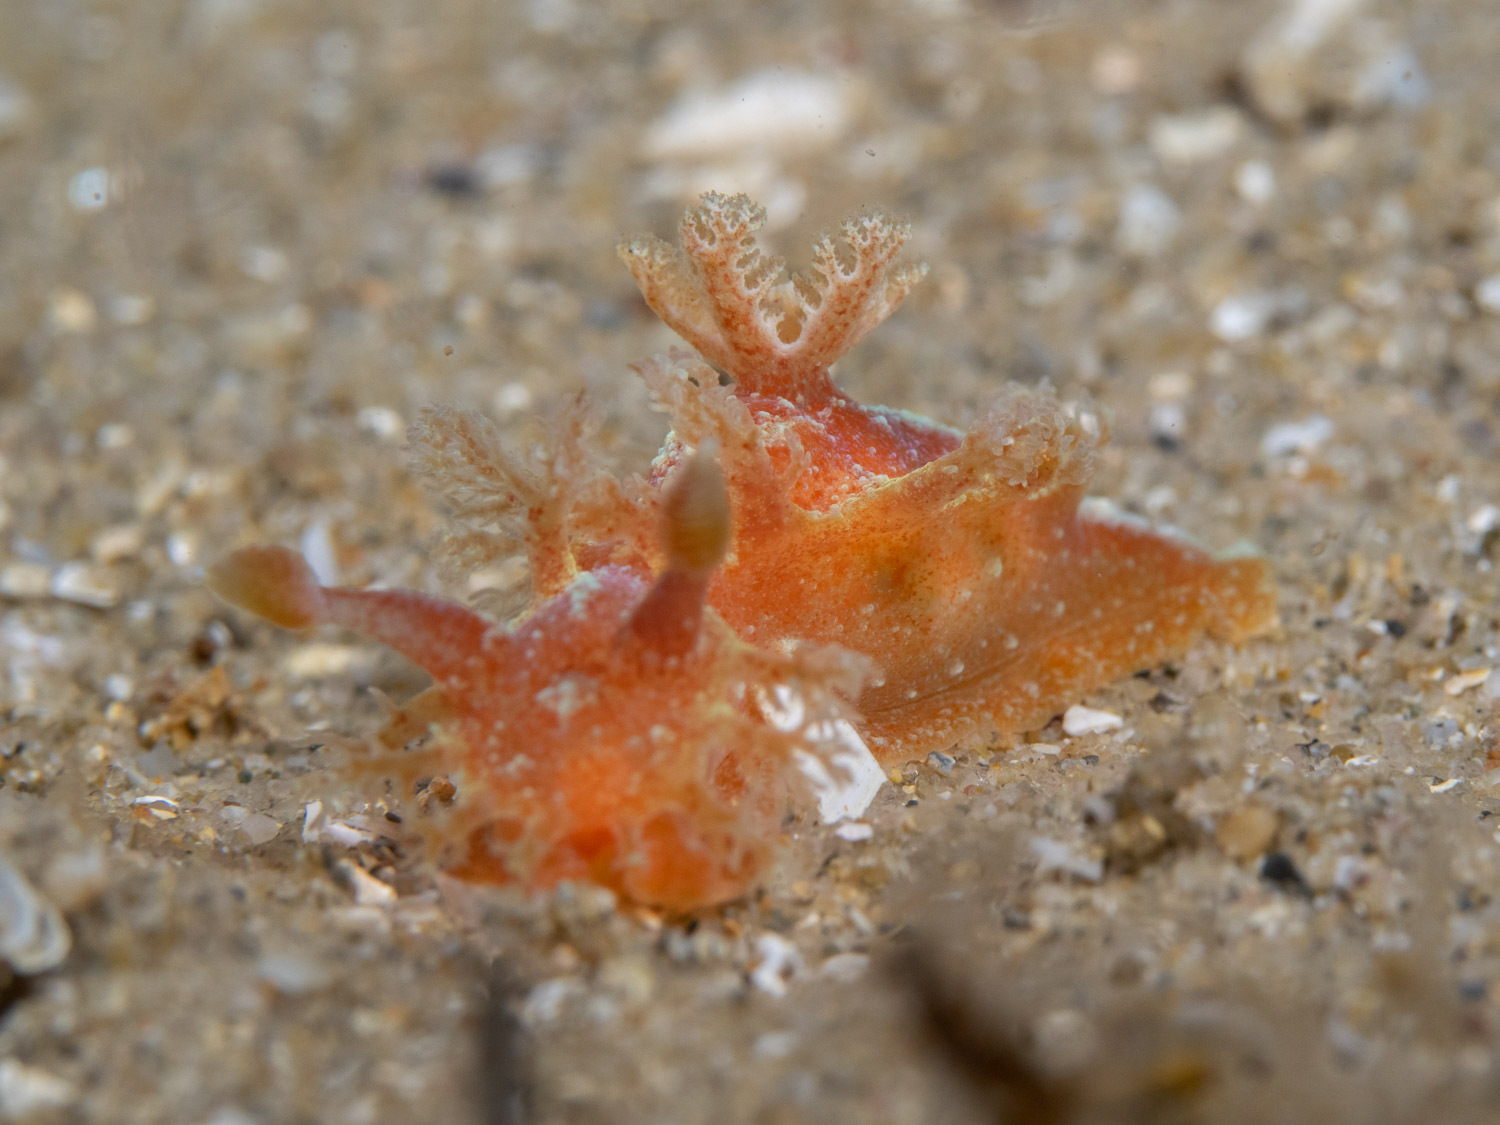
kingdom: Animalia
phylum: Mollusca
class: Gastropoda
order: Nudibranchia
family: Polyceridae
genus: Kaloplocamus
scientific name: Kaloplocamus ramosus
